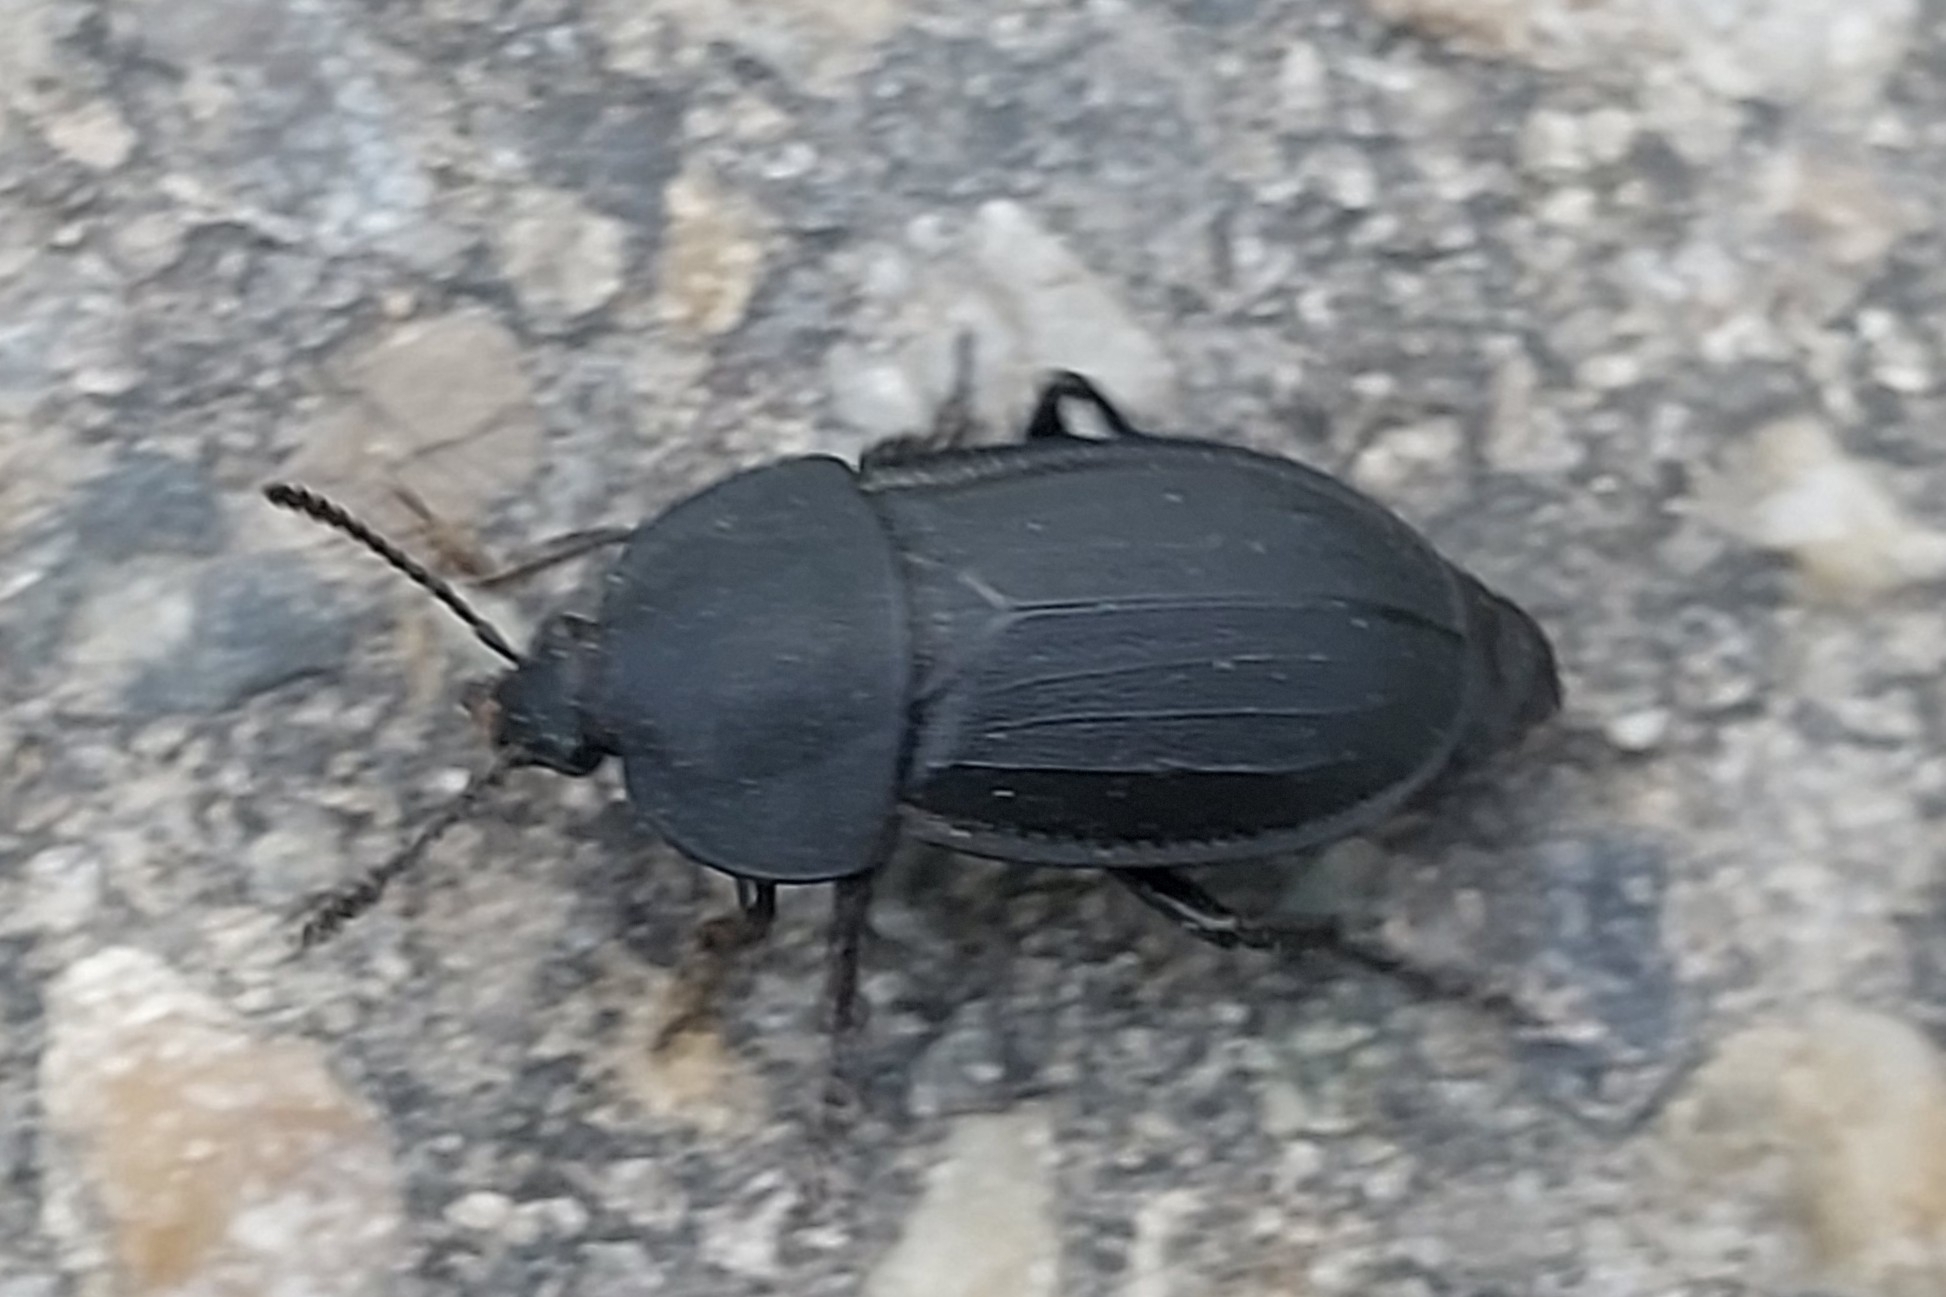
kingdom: Animalia
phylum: Arthropoda
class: Insecta
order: Coleoptera
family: Staphylinidae
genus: Silpha
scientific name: Silpha obscura
